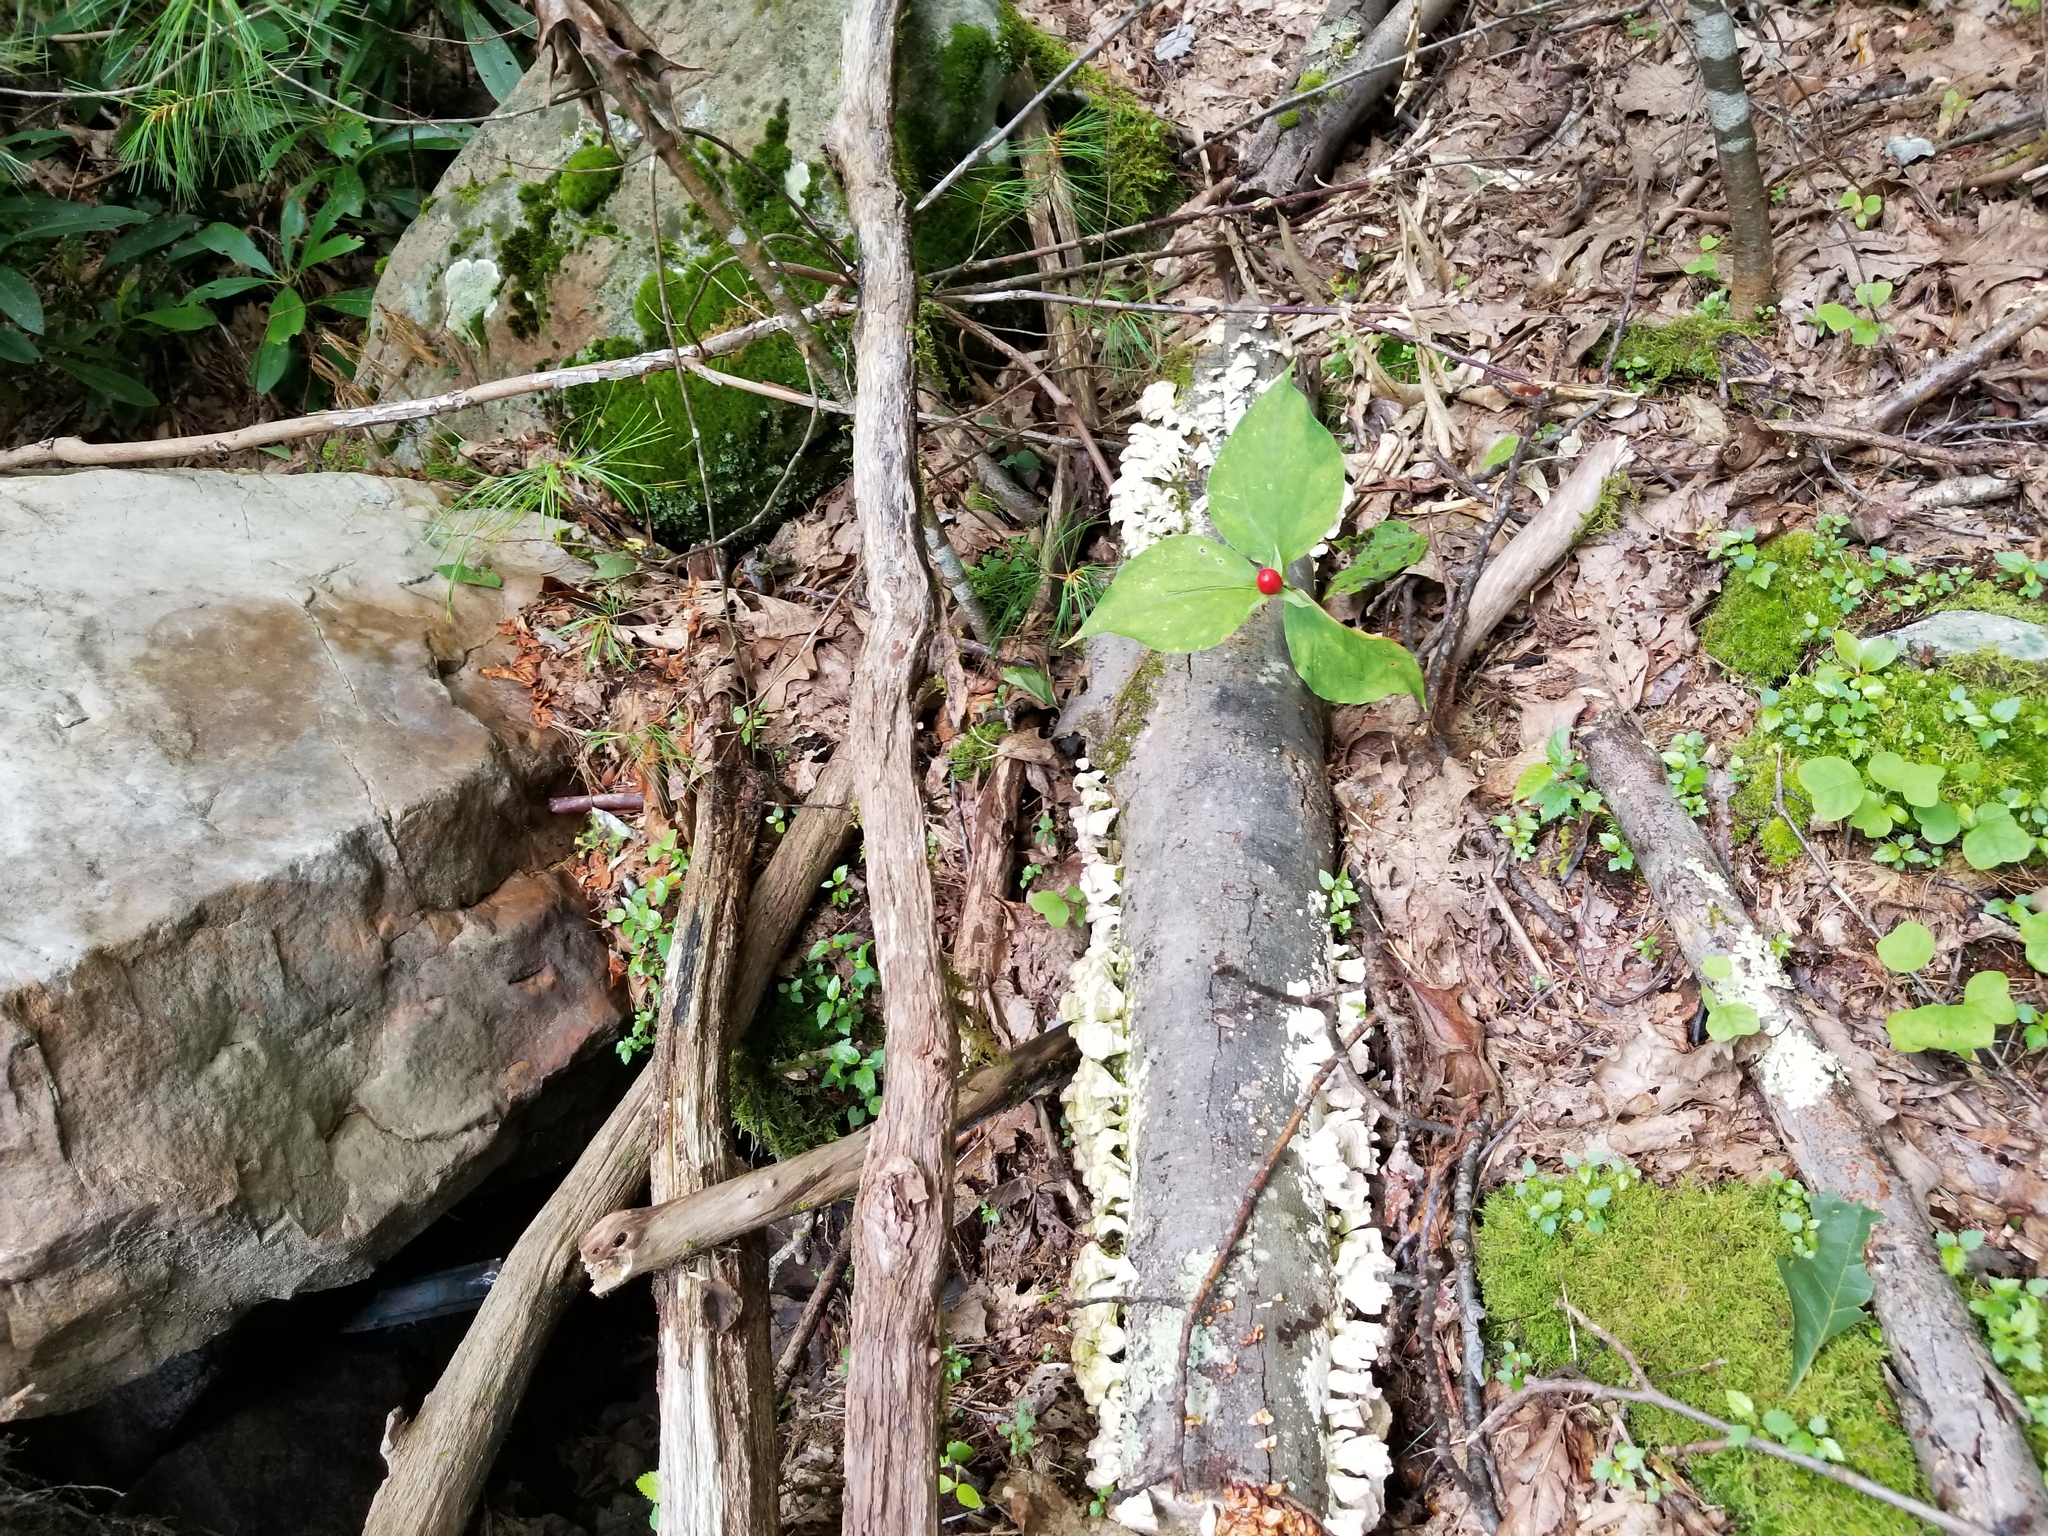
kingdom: Plantae
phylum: Tracheophyta
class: Liliopsida
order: Liliales
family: Melanthiaceae
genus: Trillium
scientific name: Trillium undulatum
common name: Paint trillium
